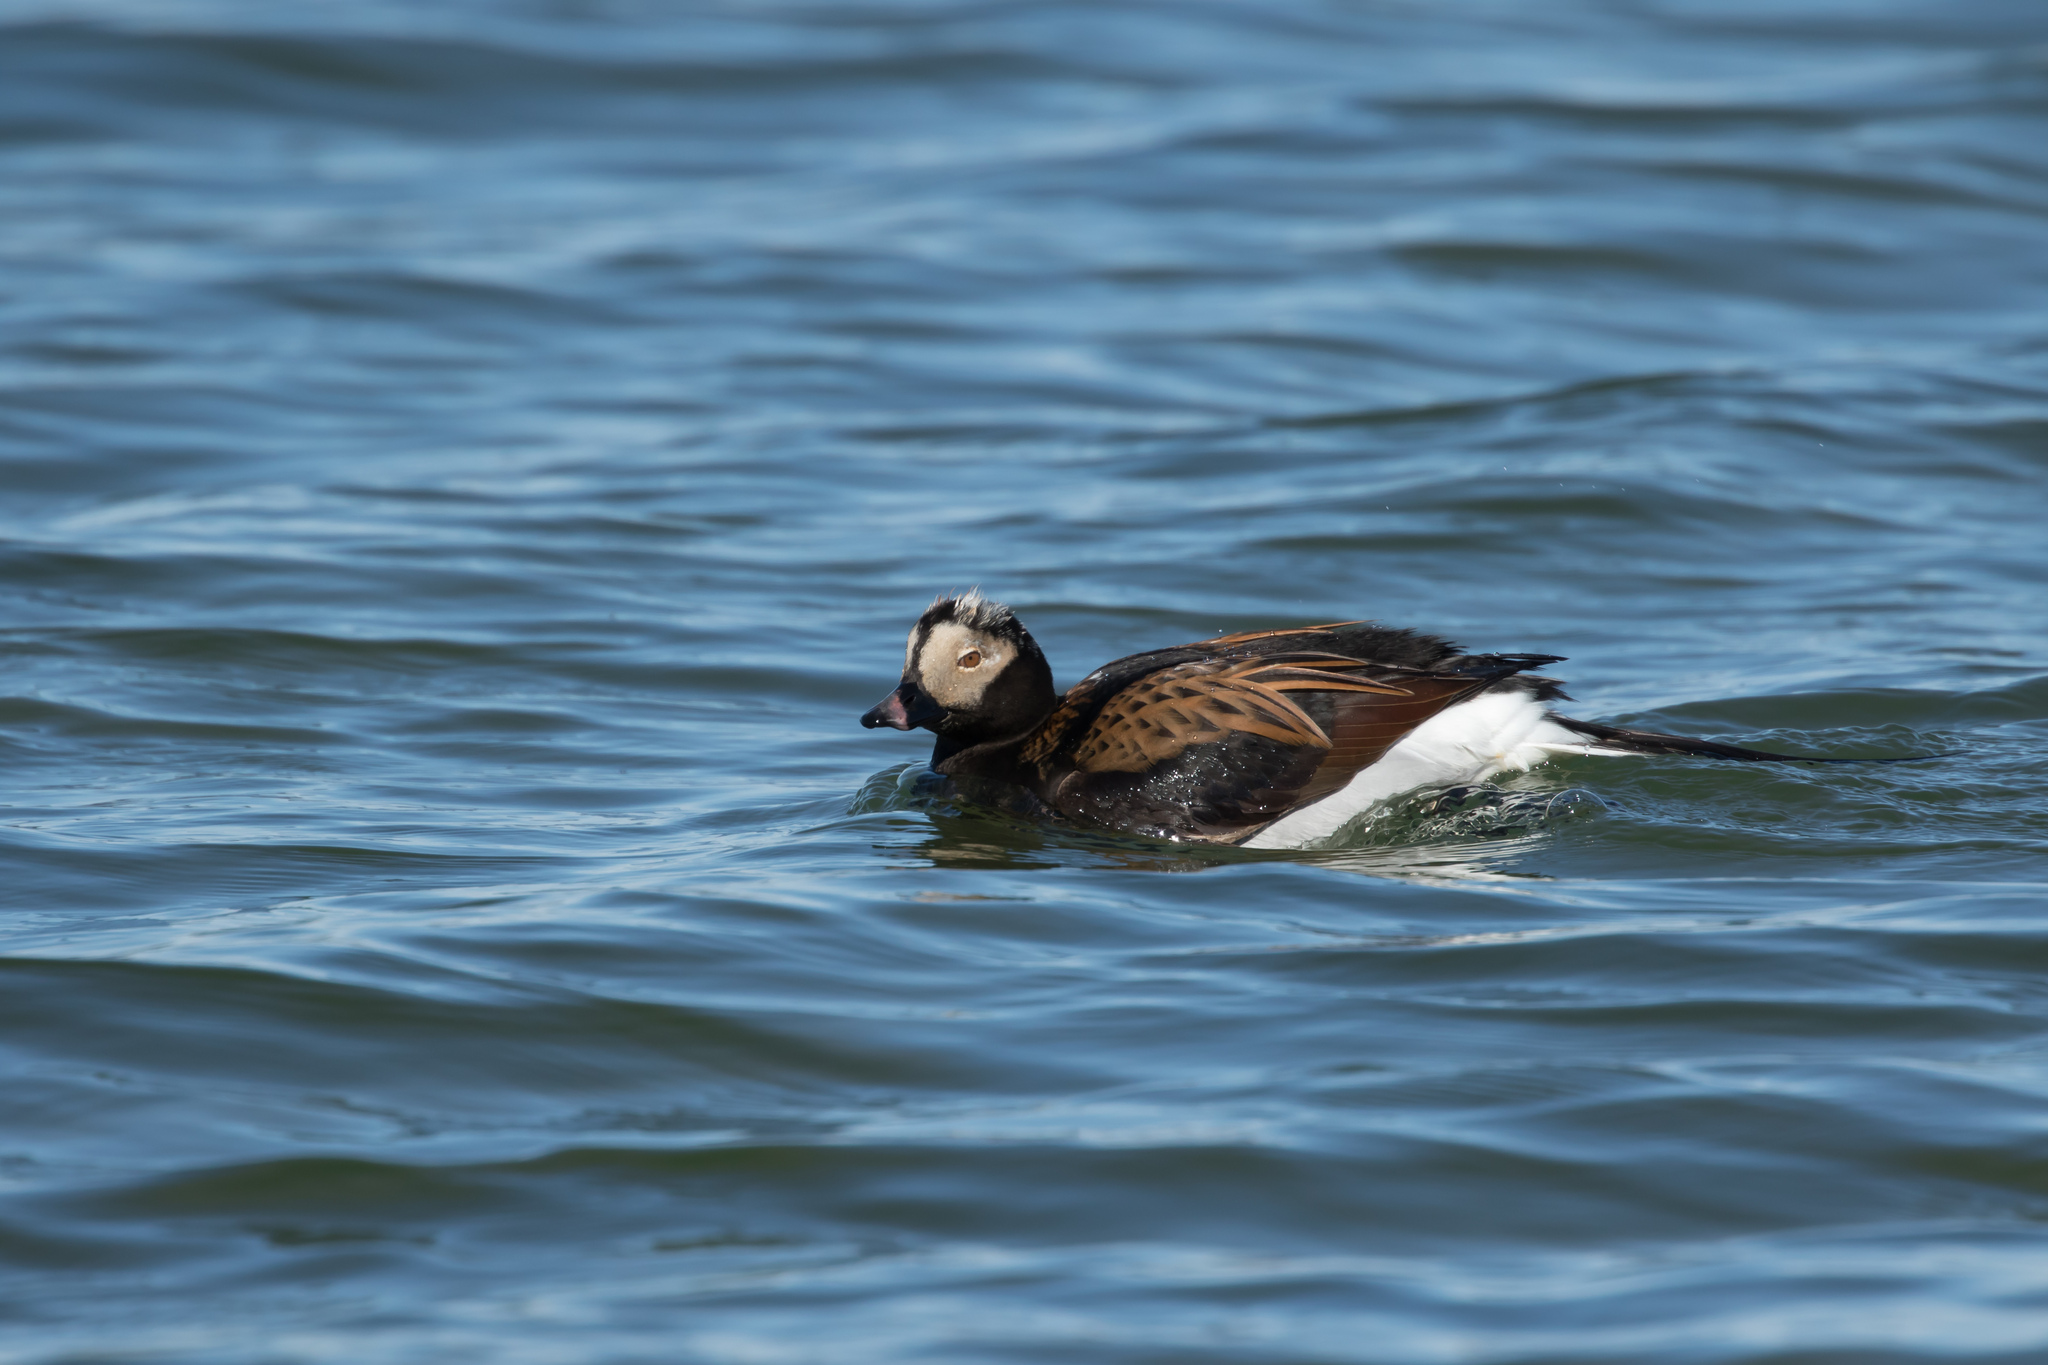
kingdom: Animalia
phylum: Chordata
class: Aves
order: Anseriformes
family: Anatidae
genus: Clangula
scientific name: Clangula hyemalis
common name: Long-tailed duck
